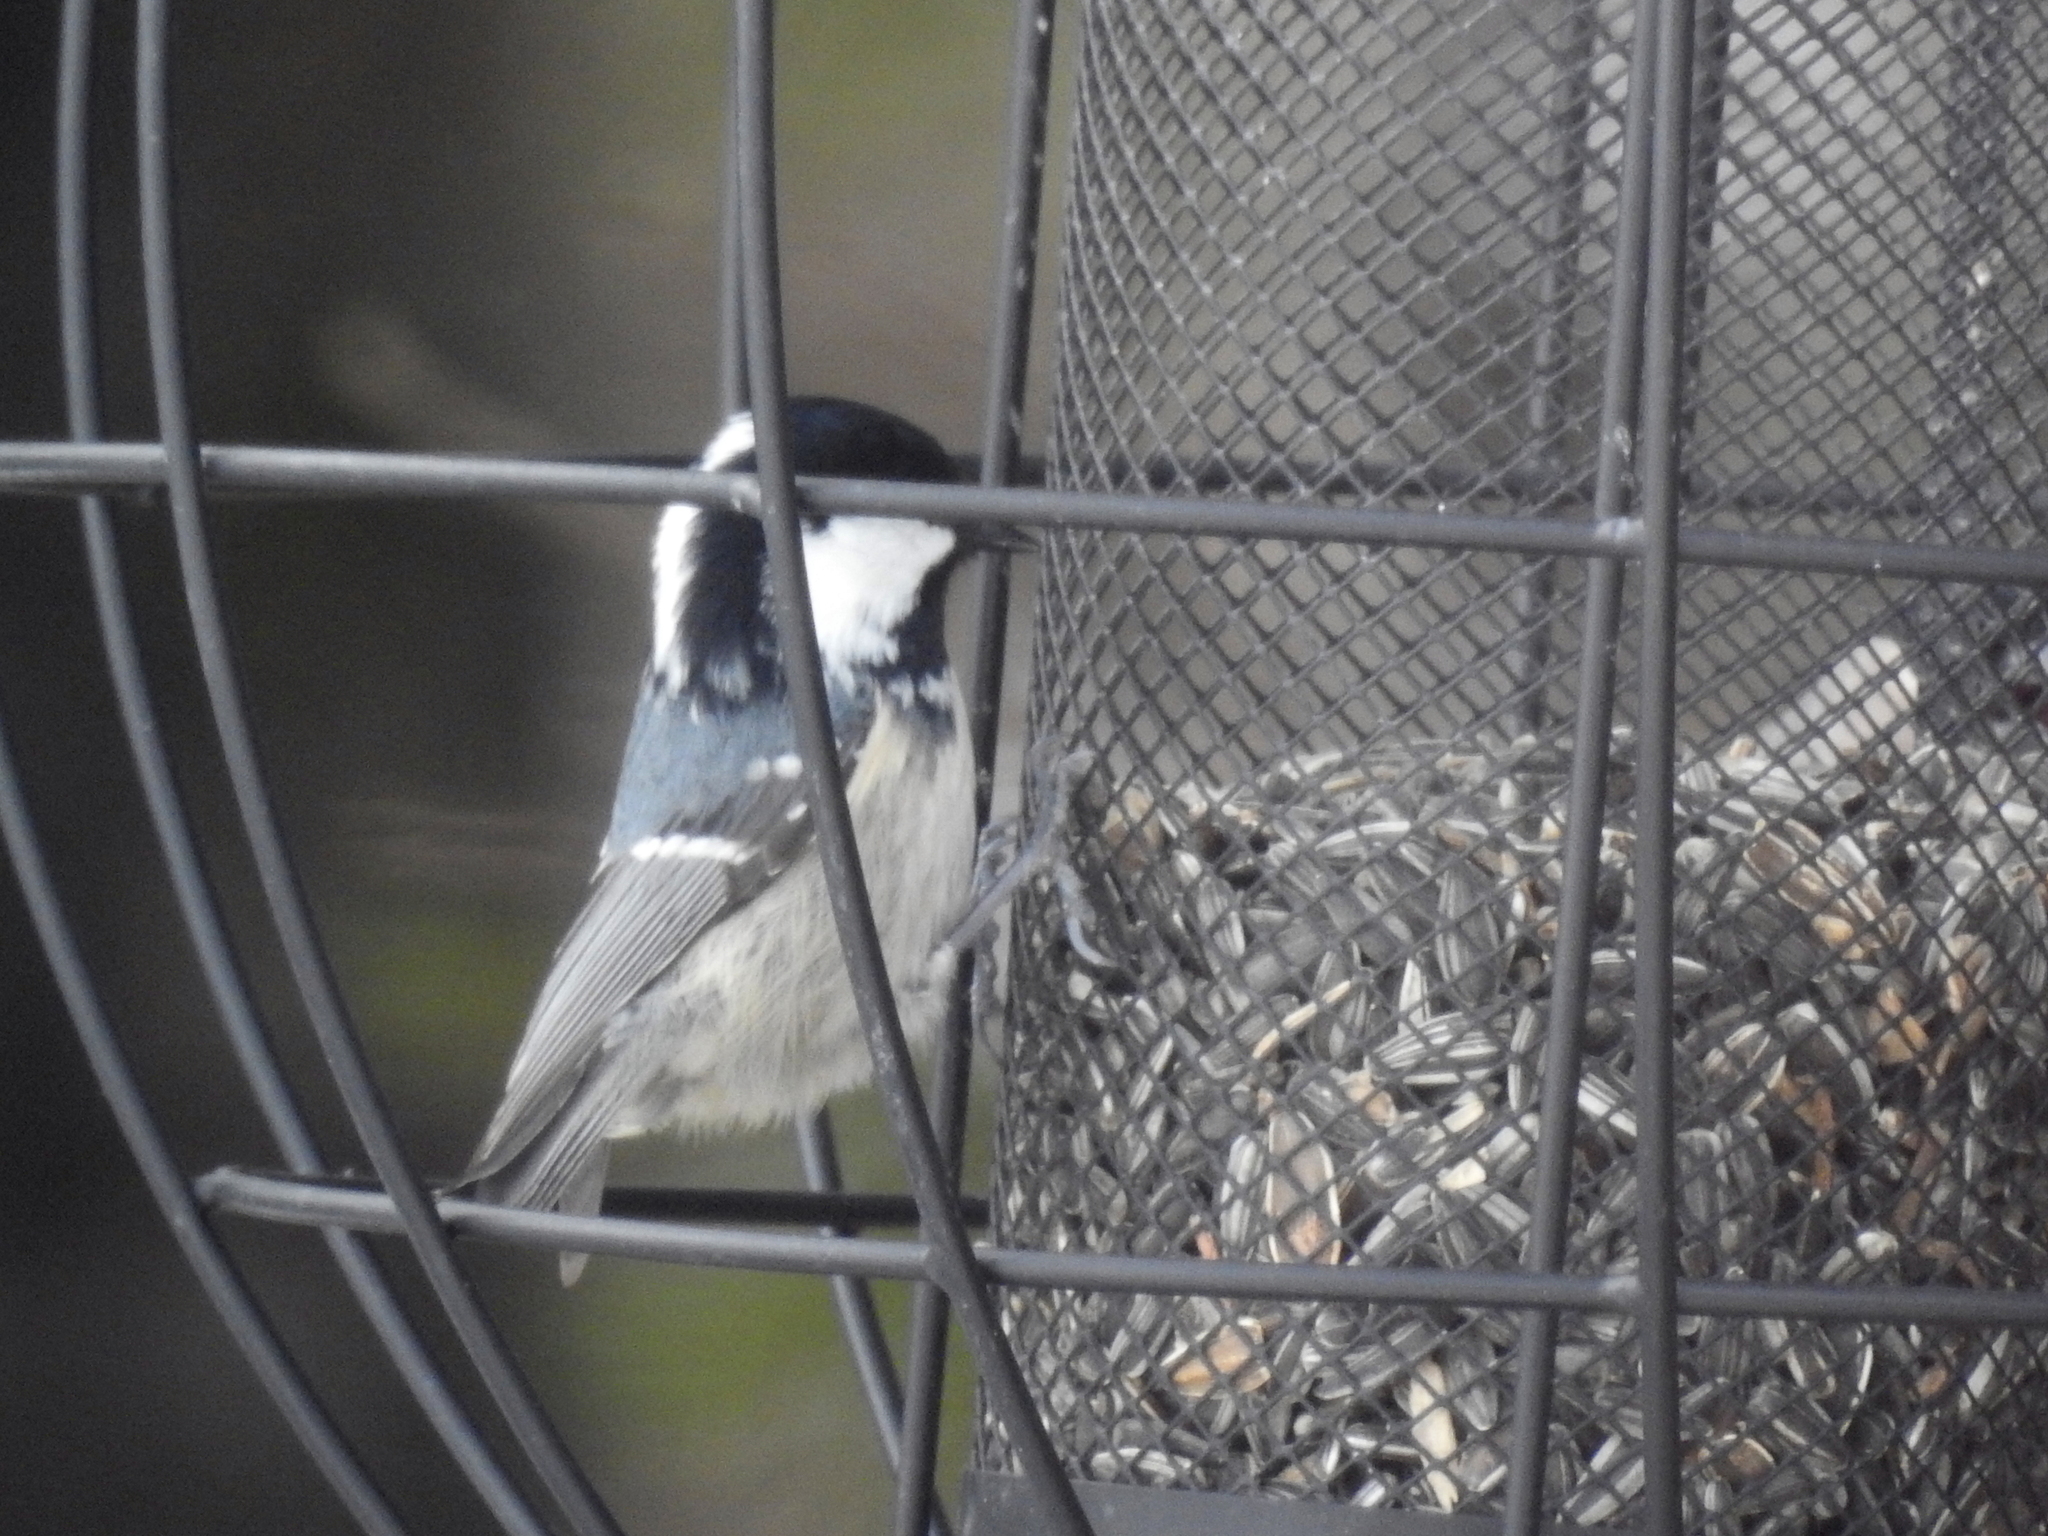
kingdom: Animalia
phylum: Chordata
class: Aves
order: Passeriformes
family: Paridae
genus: Periparus
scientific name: Periparus ater
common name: Coal tit
